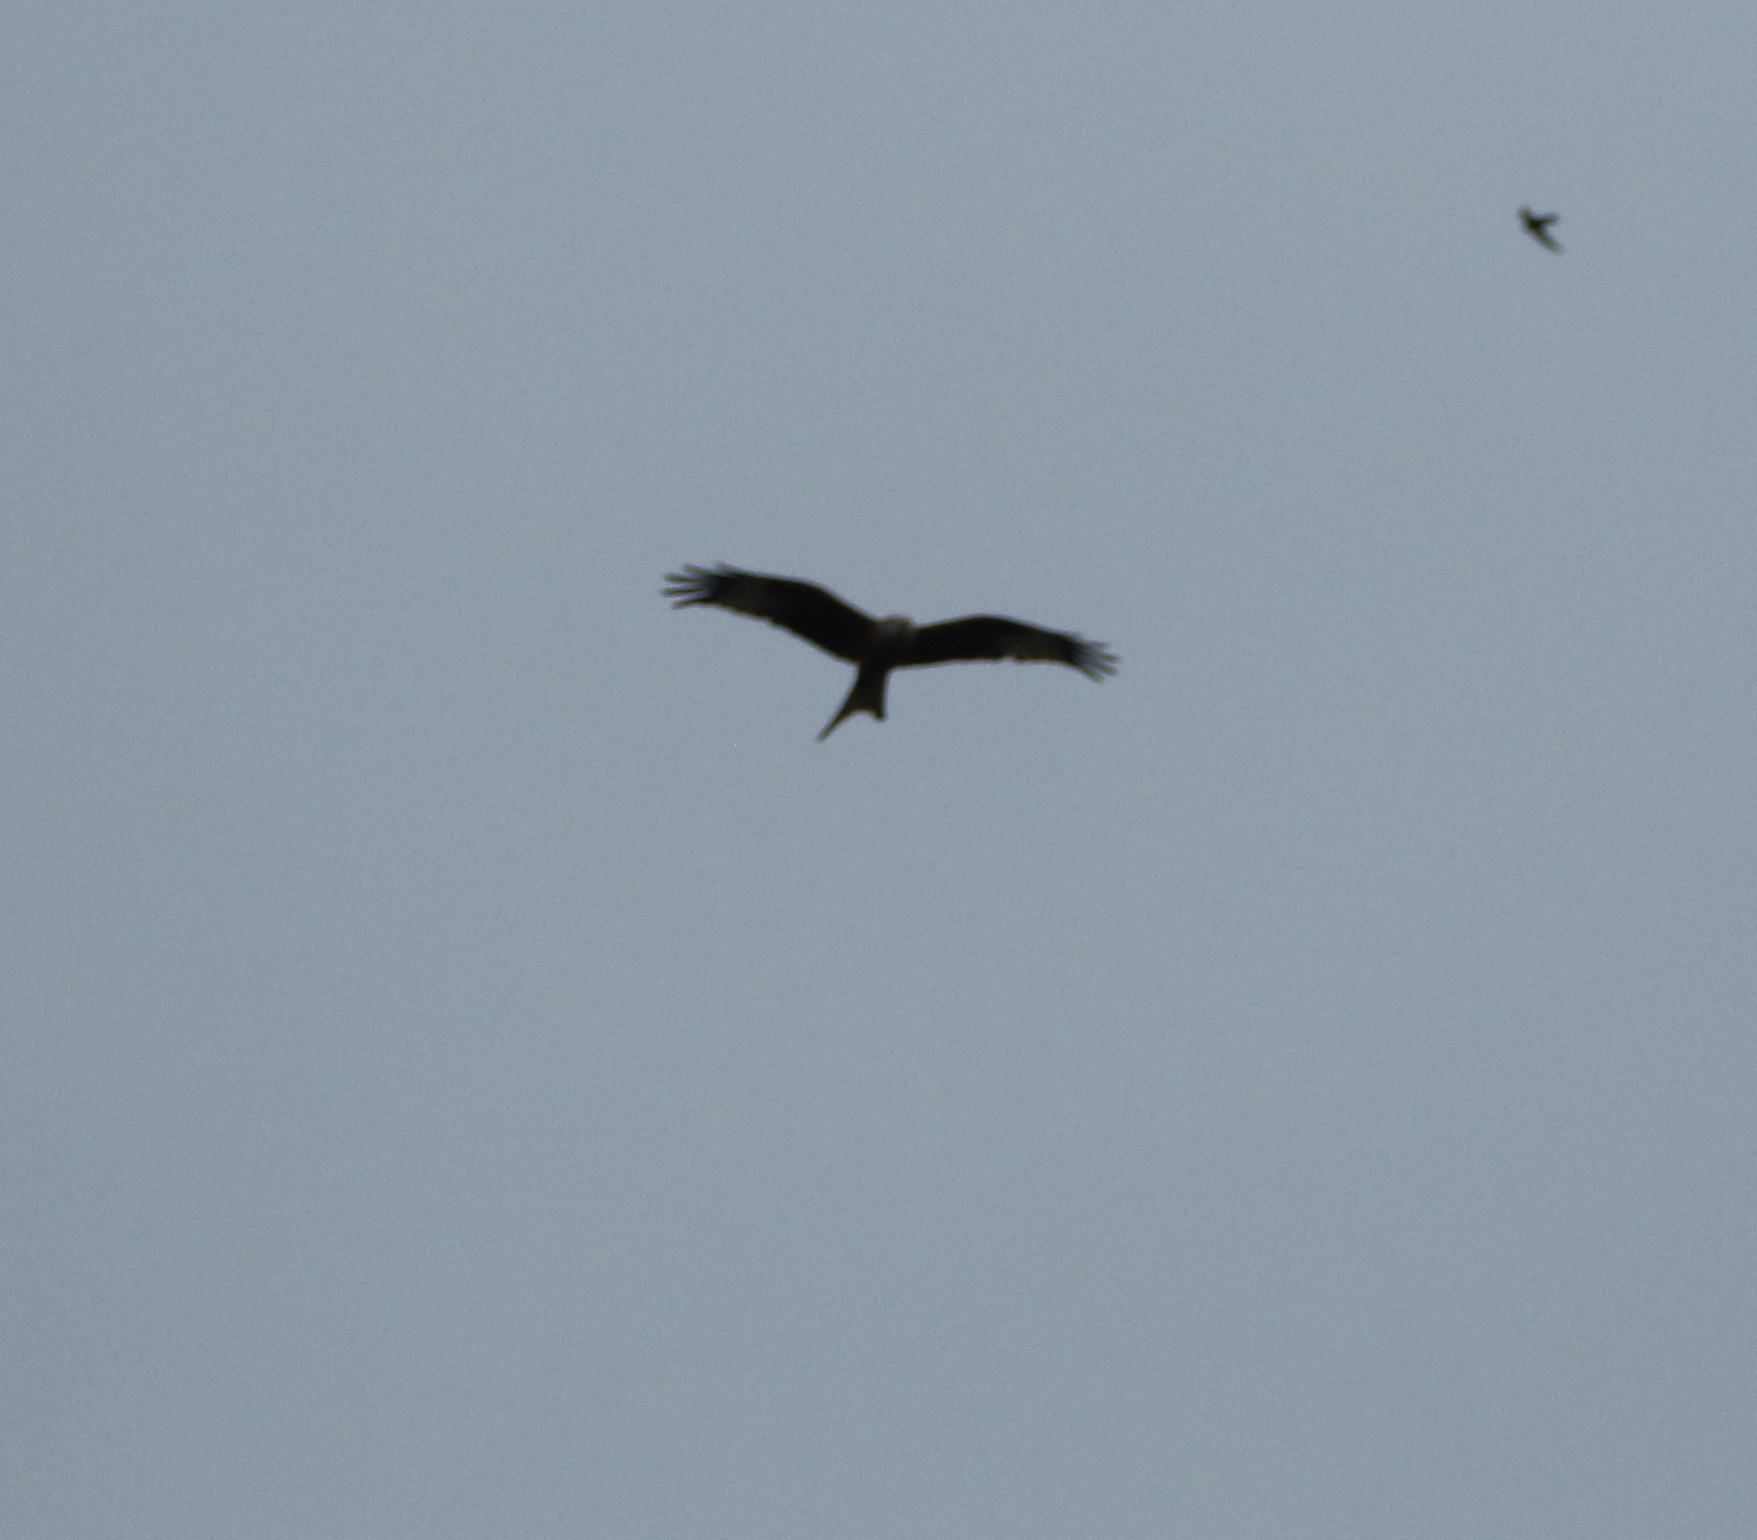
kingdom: Animalia
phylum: Chordata
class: Aves
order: Accipitriformes
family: Accipitridae
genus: Milvus
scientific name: Milvus milvus
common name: Red kite
